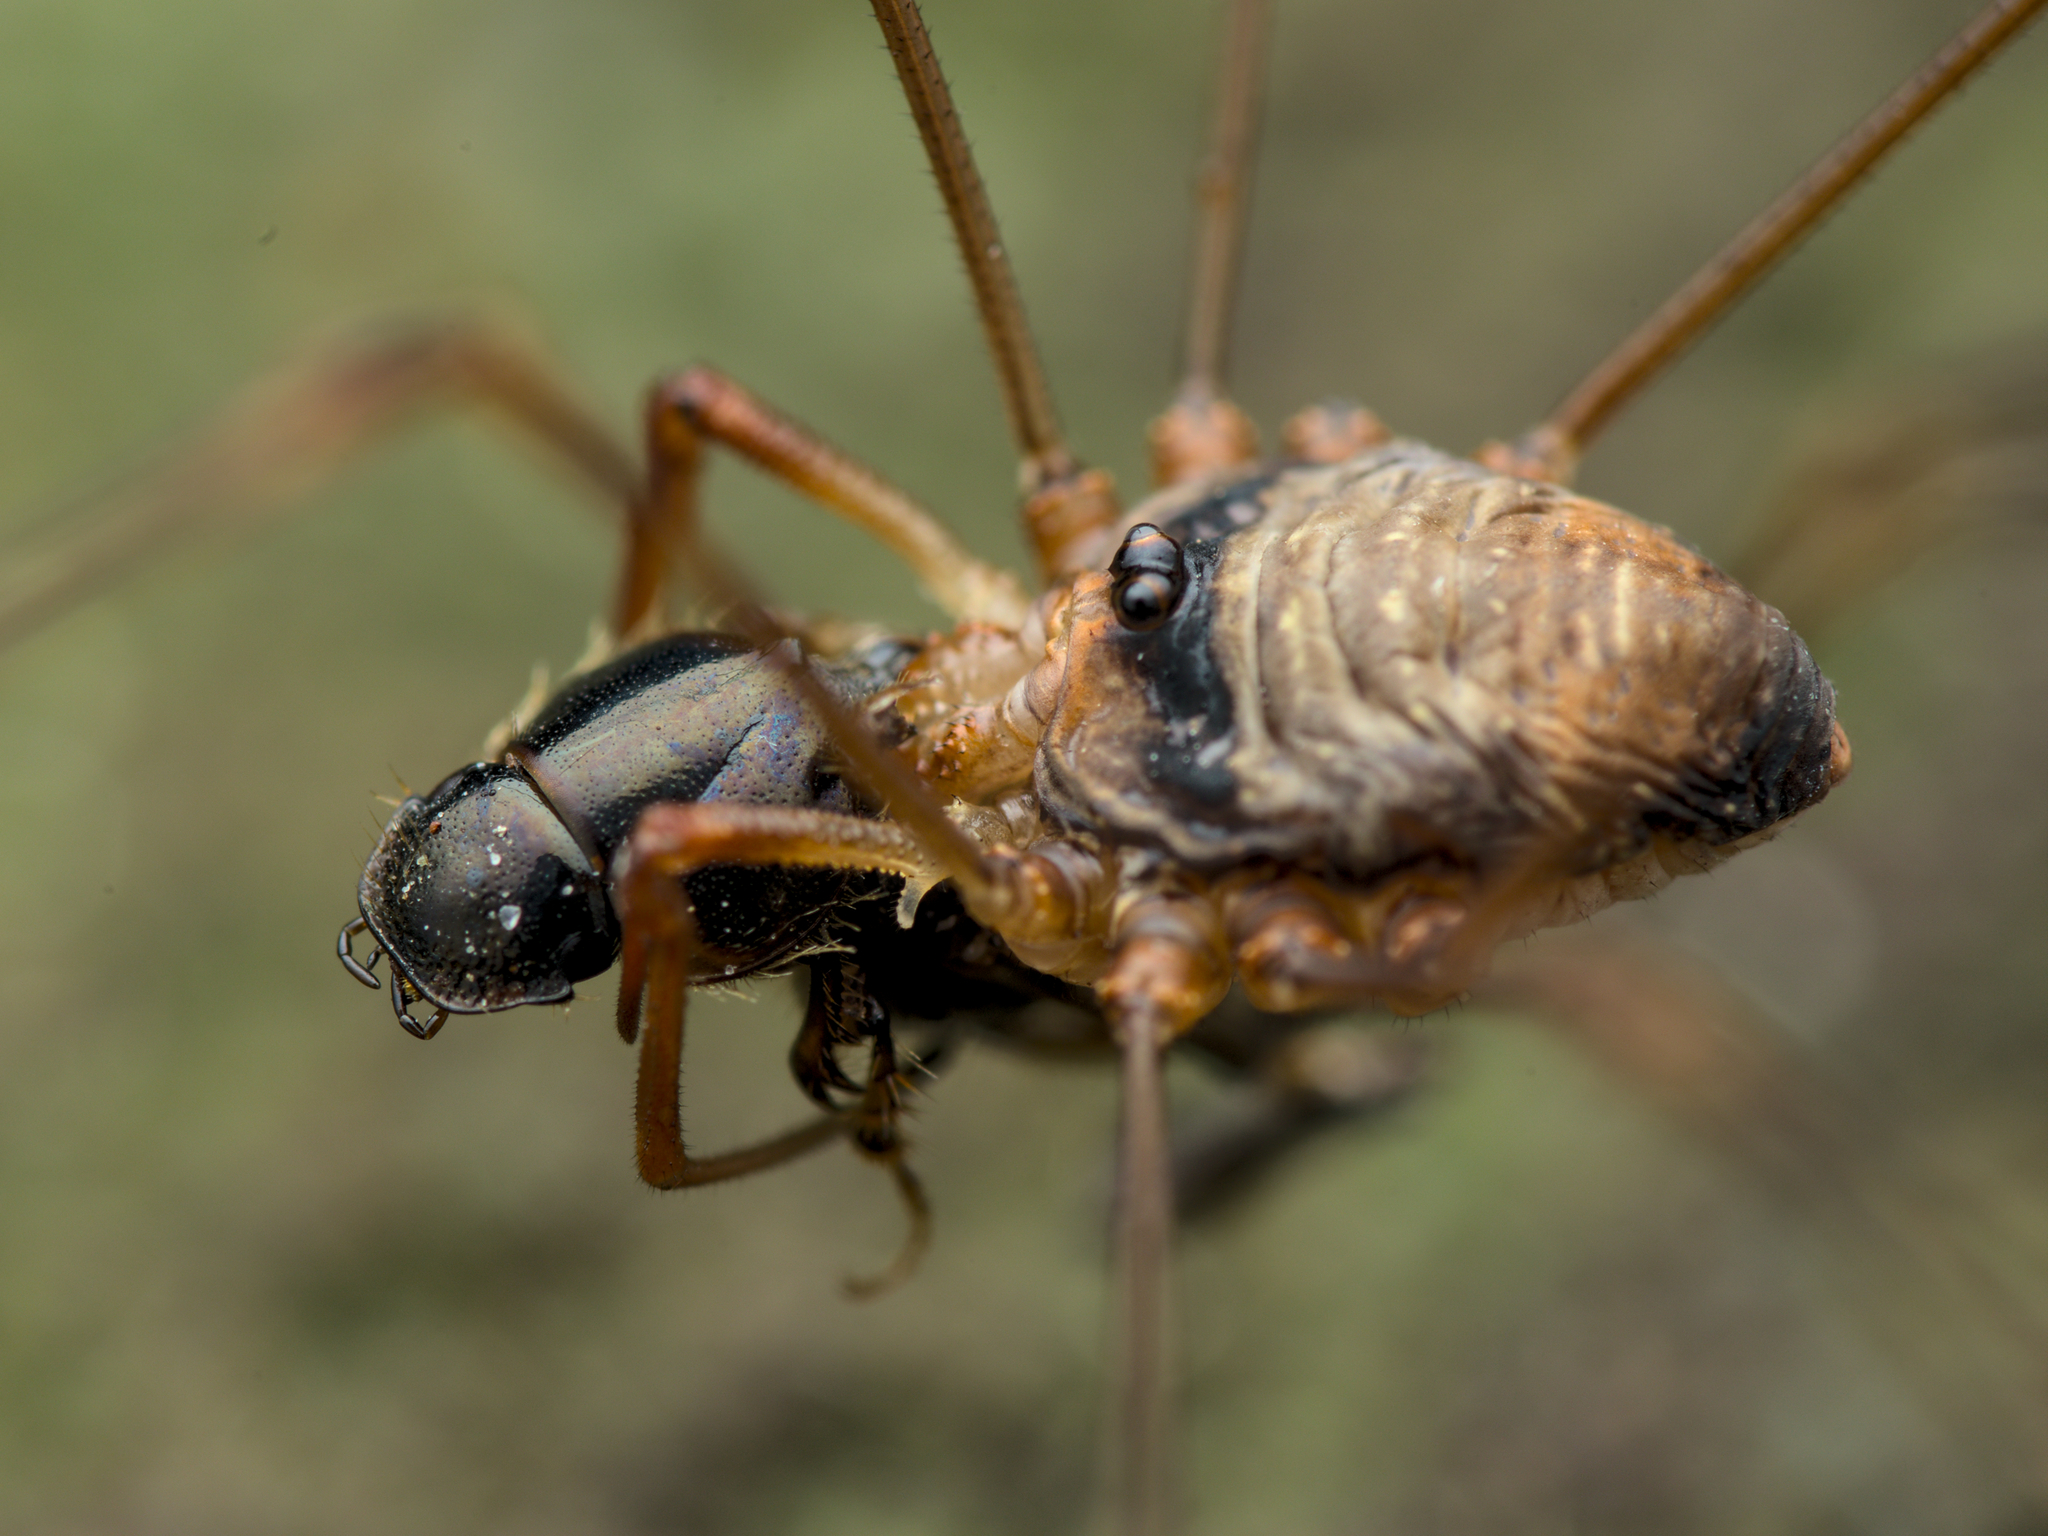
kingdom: Animalia
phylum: Arthropoda
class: Arachnida
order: Opiliones
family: Phalangiidae
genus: Dicranopalpus
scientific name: Dicranopalpus ramosus
